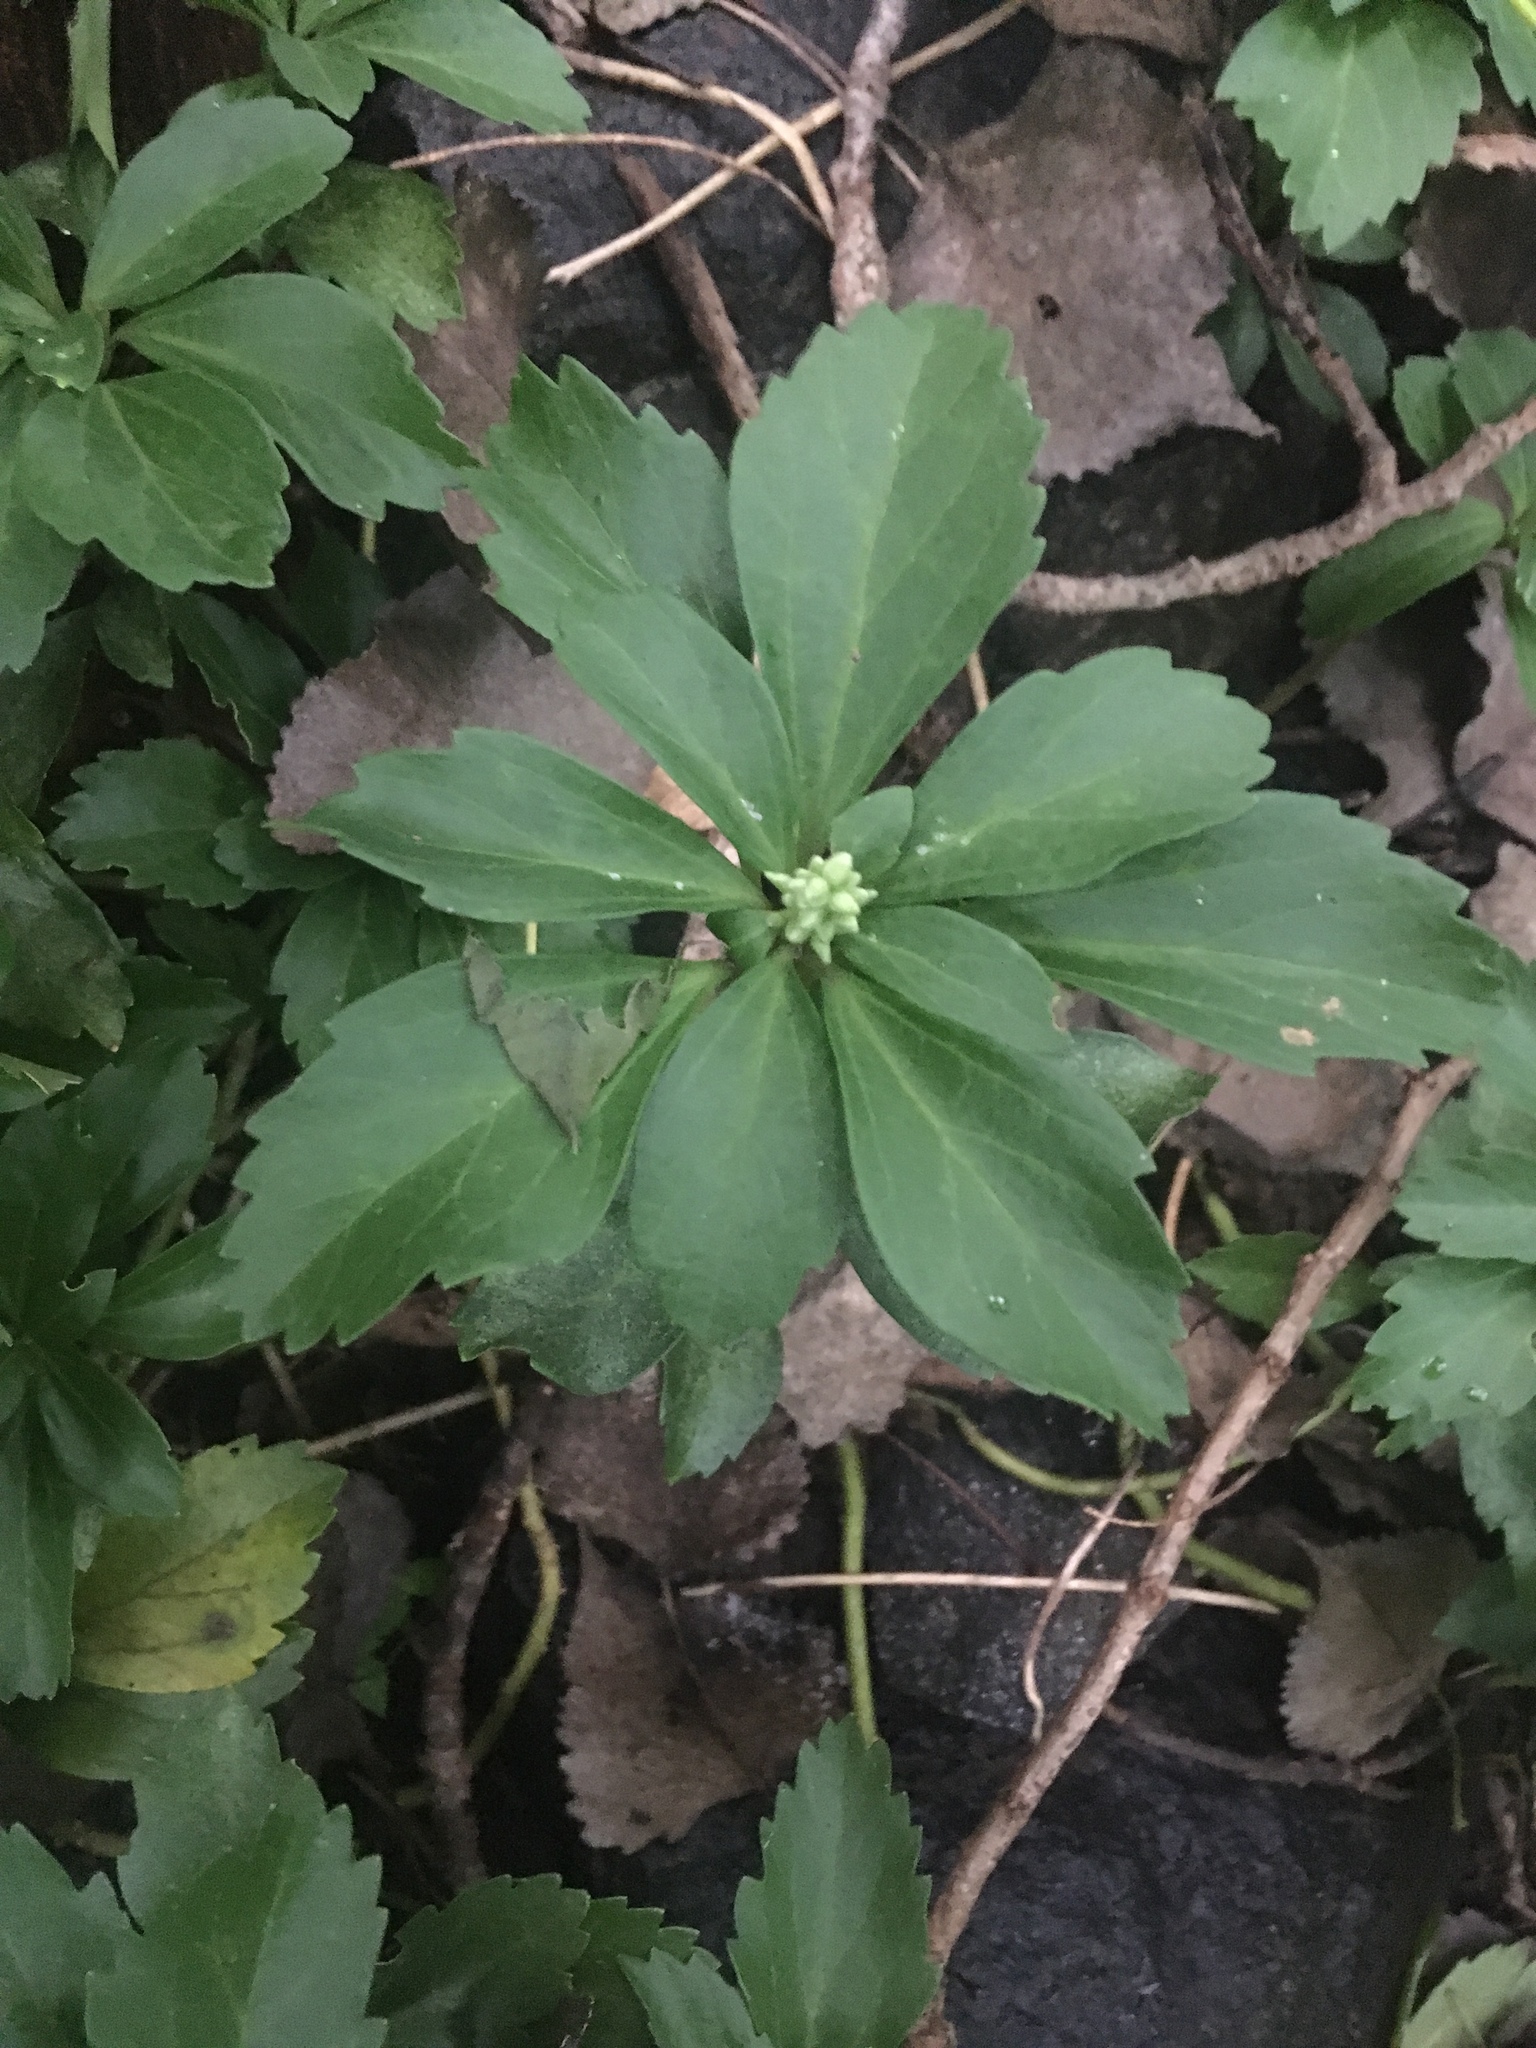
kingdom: Plantae
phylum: Tracheophyta
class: Magnoliopsida
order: Buxales
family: Buxaceae
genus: Pachysandra
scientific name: Pachysandra terminalis
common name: Japanese pachysandra
